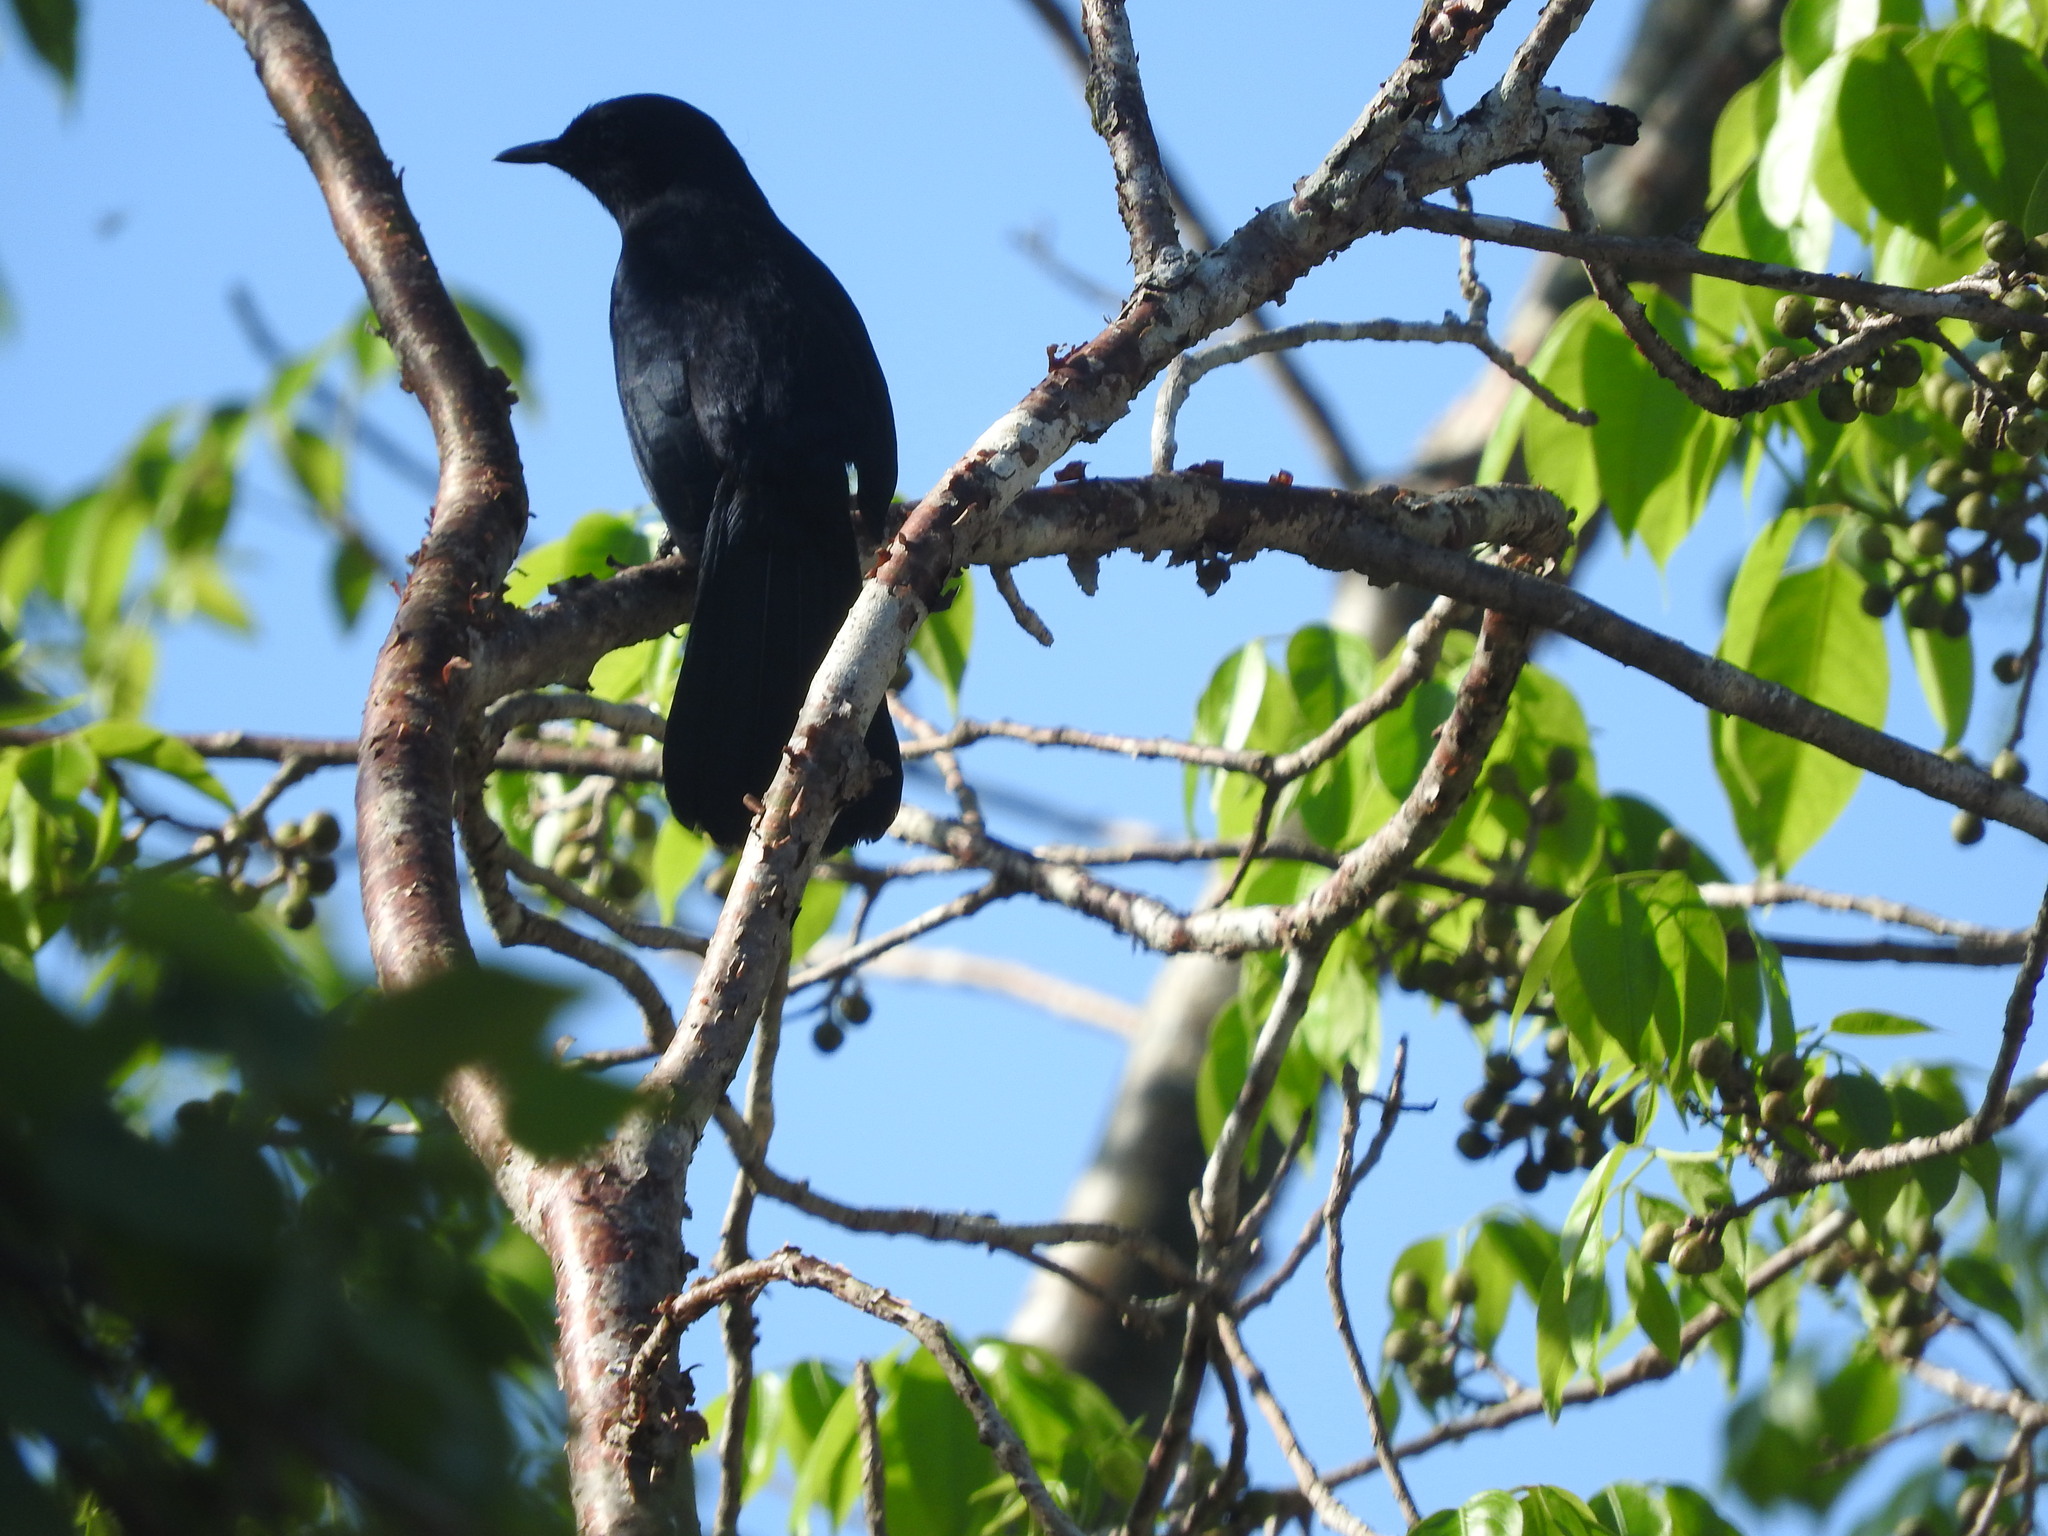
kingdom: Animalia
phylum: Chordata
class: Aves
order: Passeriformes
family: Mimidae
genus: Melanoptila
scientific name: Melanoptila glabrirostris
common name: Black catbird
